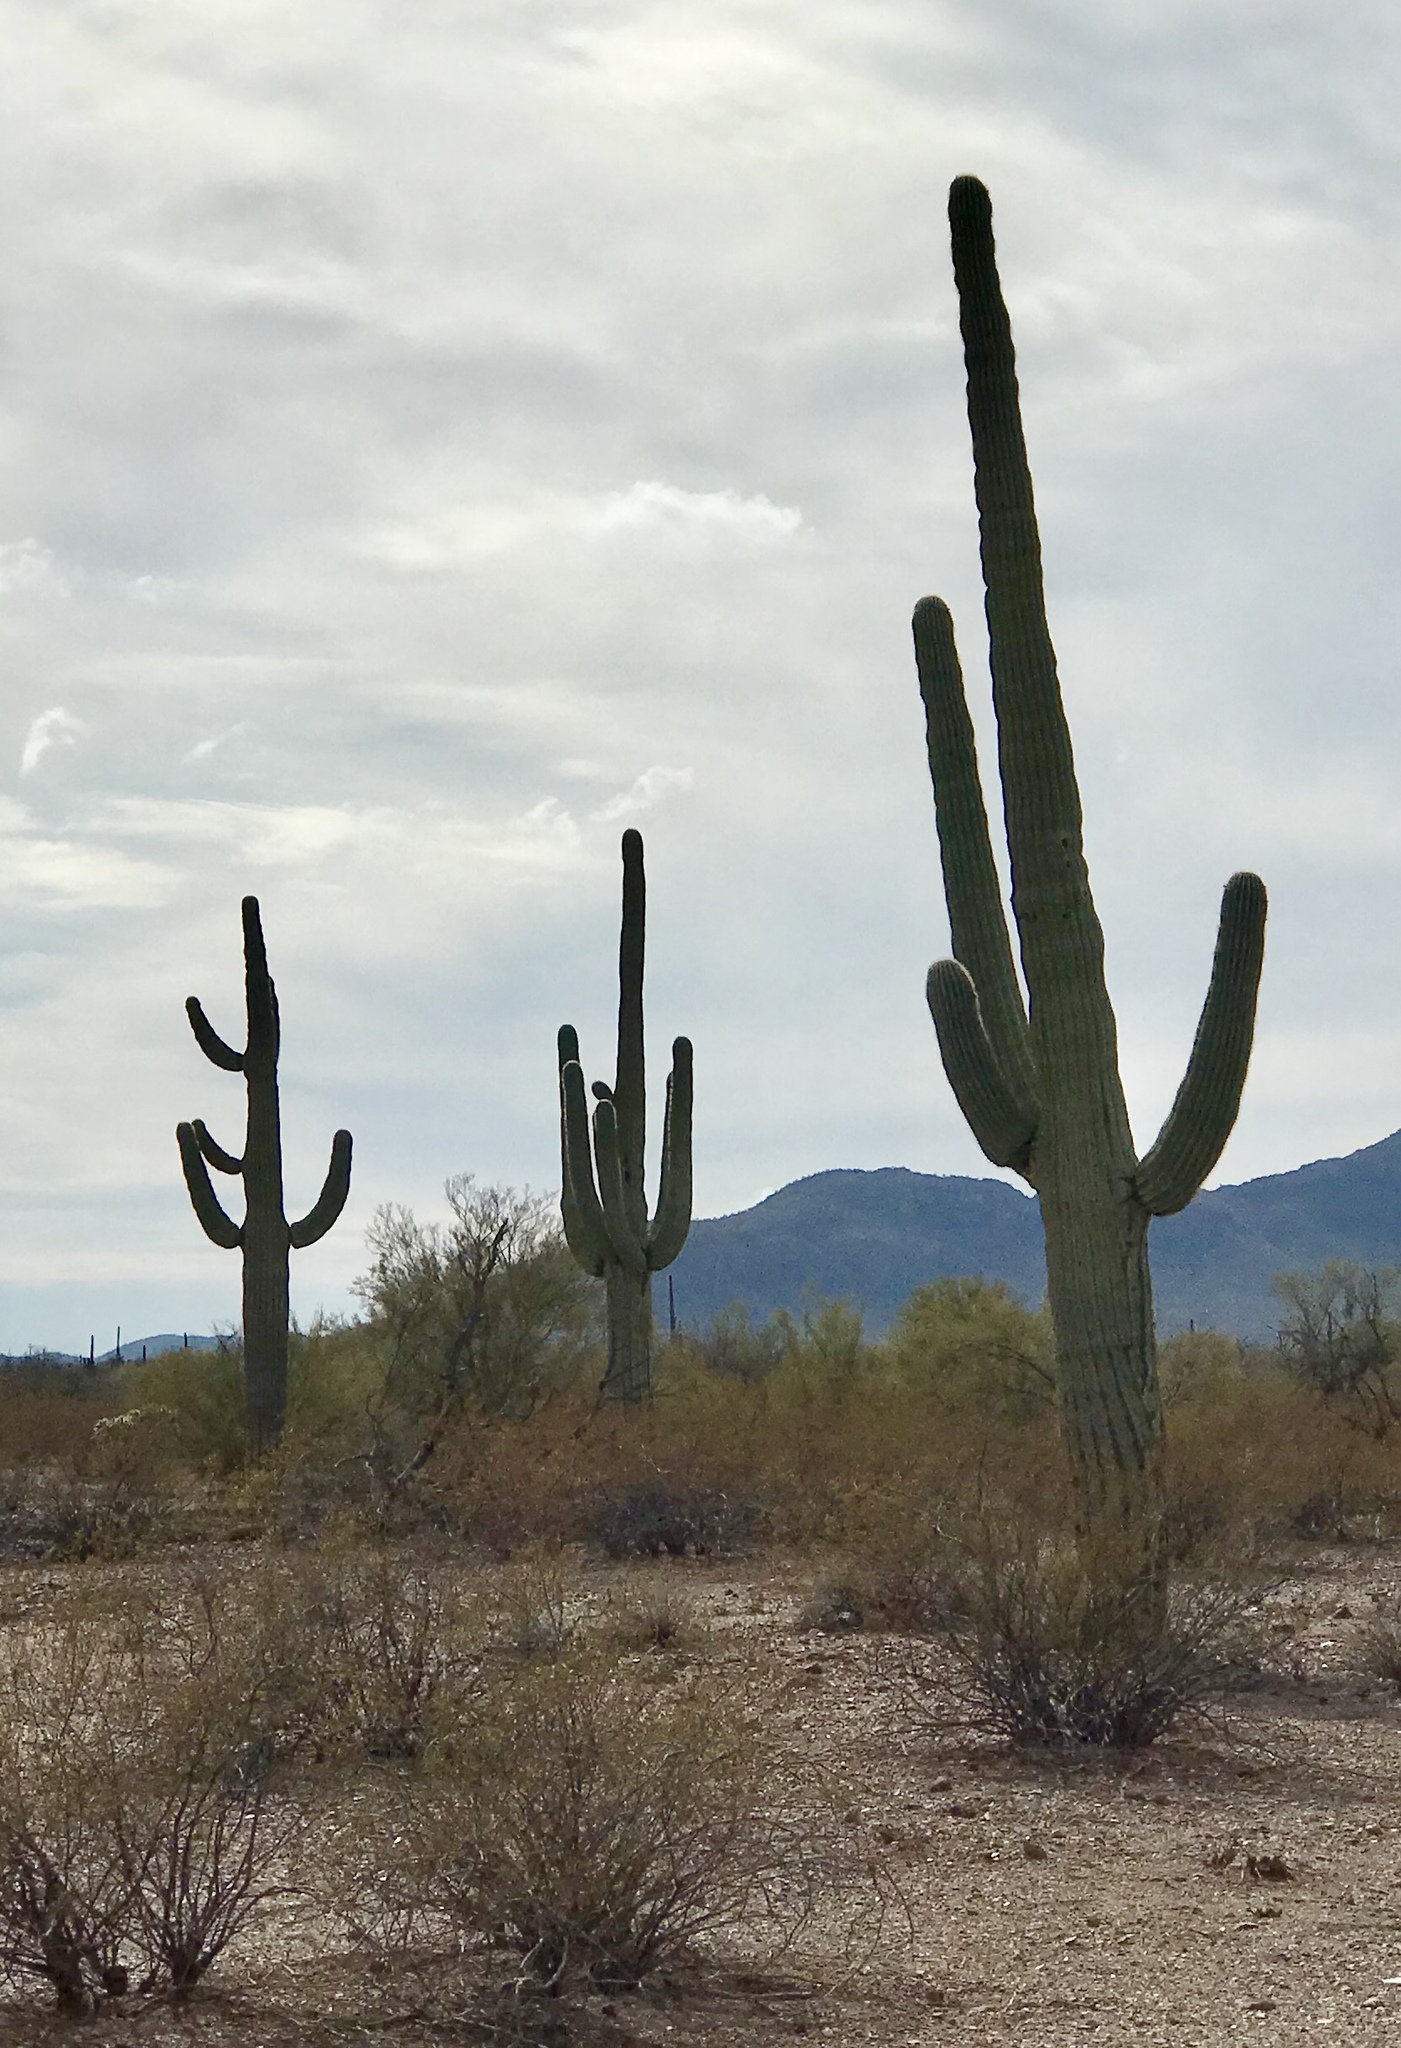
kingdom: Plantae
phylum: Tracheophyta
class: Magnoliopsida
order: Caryophyllales
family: Cactaceae
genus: Carnegiea
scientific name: Carnegiea gigantea
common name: Saguaro
